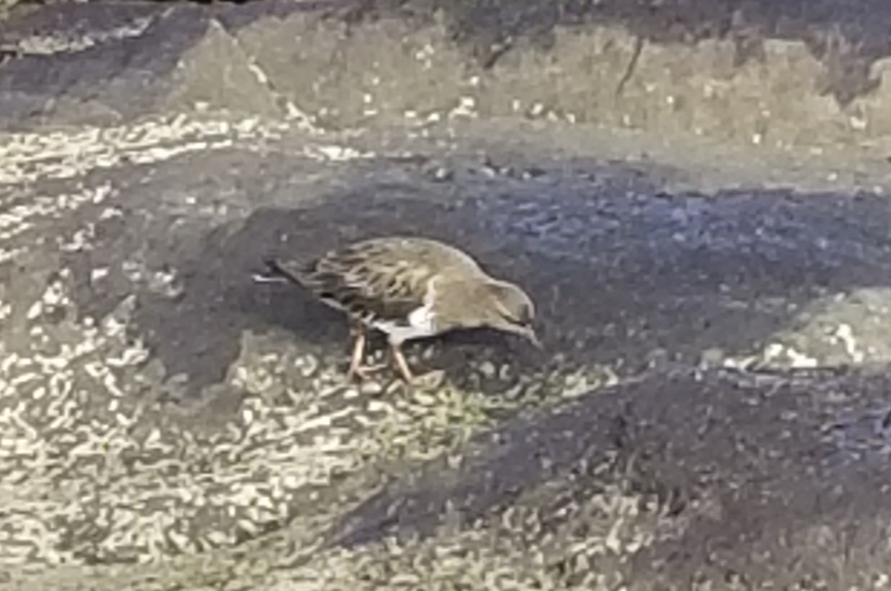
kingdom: Animalia
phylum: Chordata
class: Aves
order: Charadriiformes
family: Scolopacidae
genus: Arenaria
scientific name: Arenaria melanocephala
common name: Black turnstone
